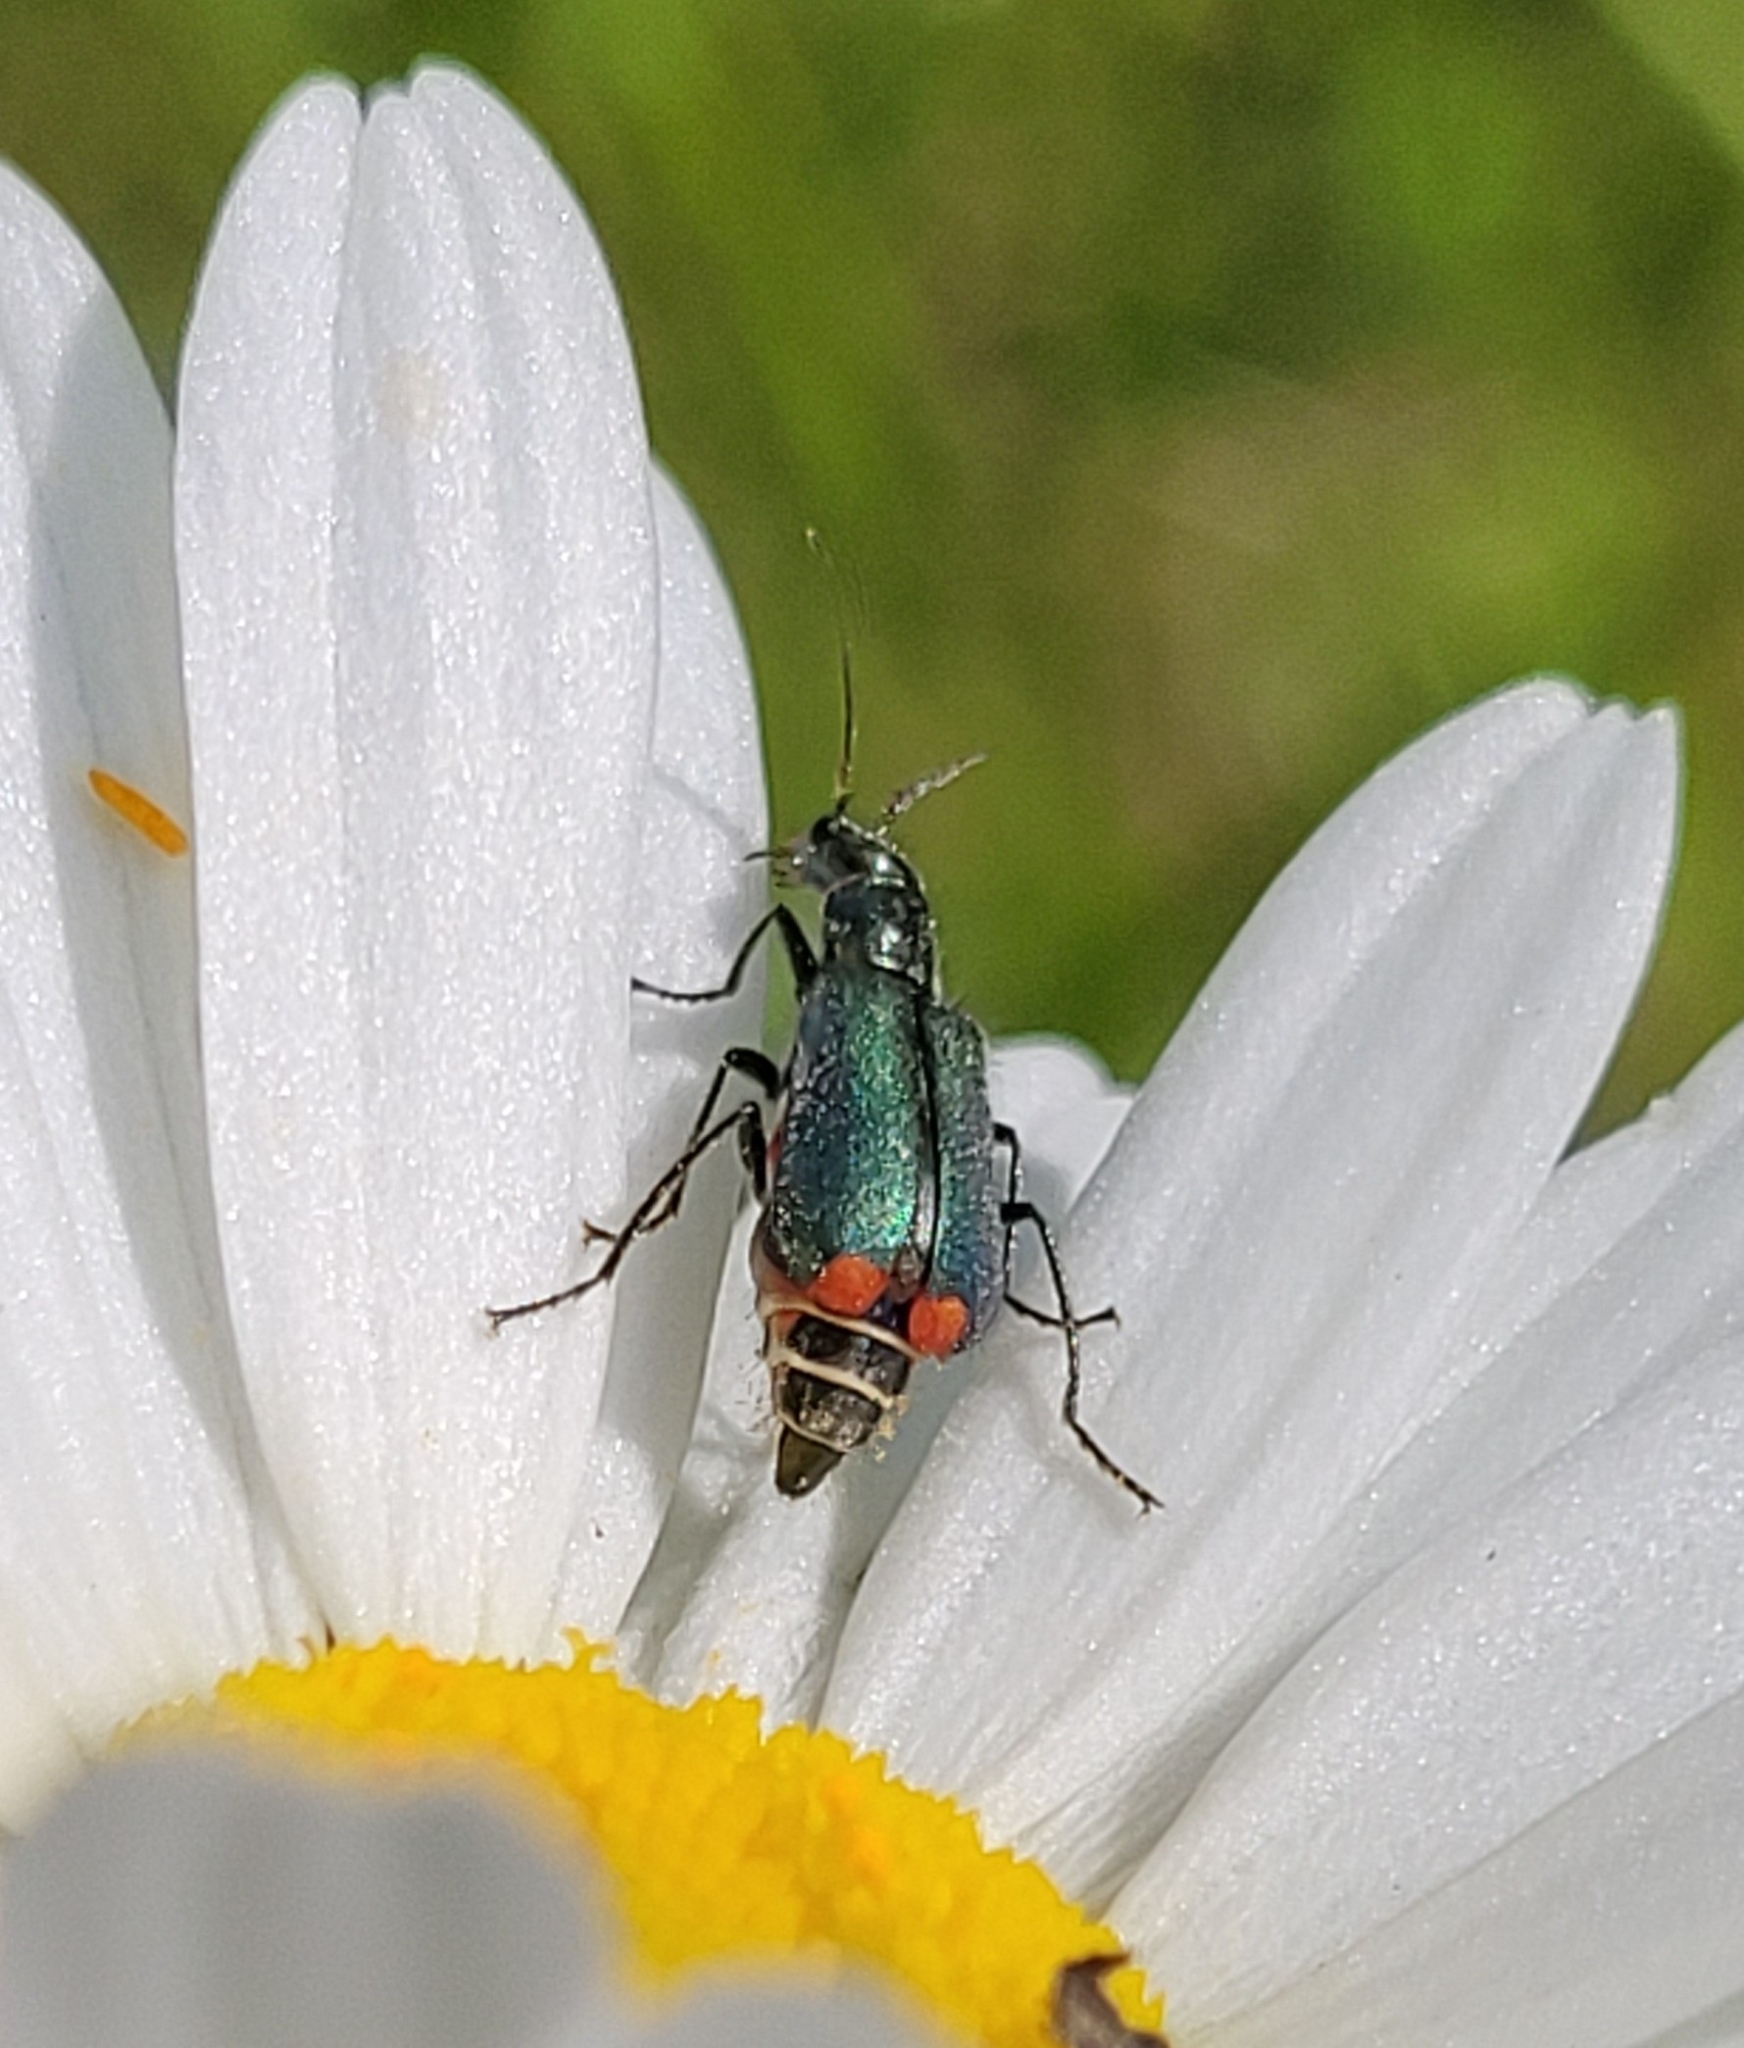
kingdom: Animalia
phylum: Arthropoda
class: Insecta
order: Coleoptera
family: Melyridae
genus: Malachius
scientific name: Malachius bipustulatus
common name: Malachite beetle
